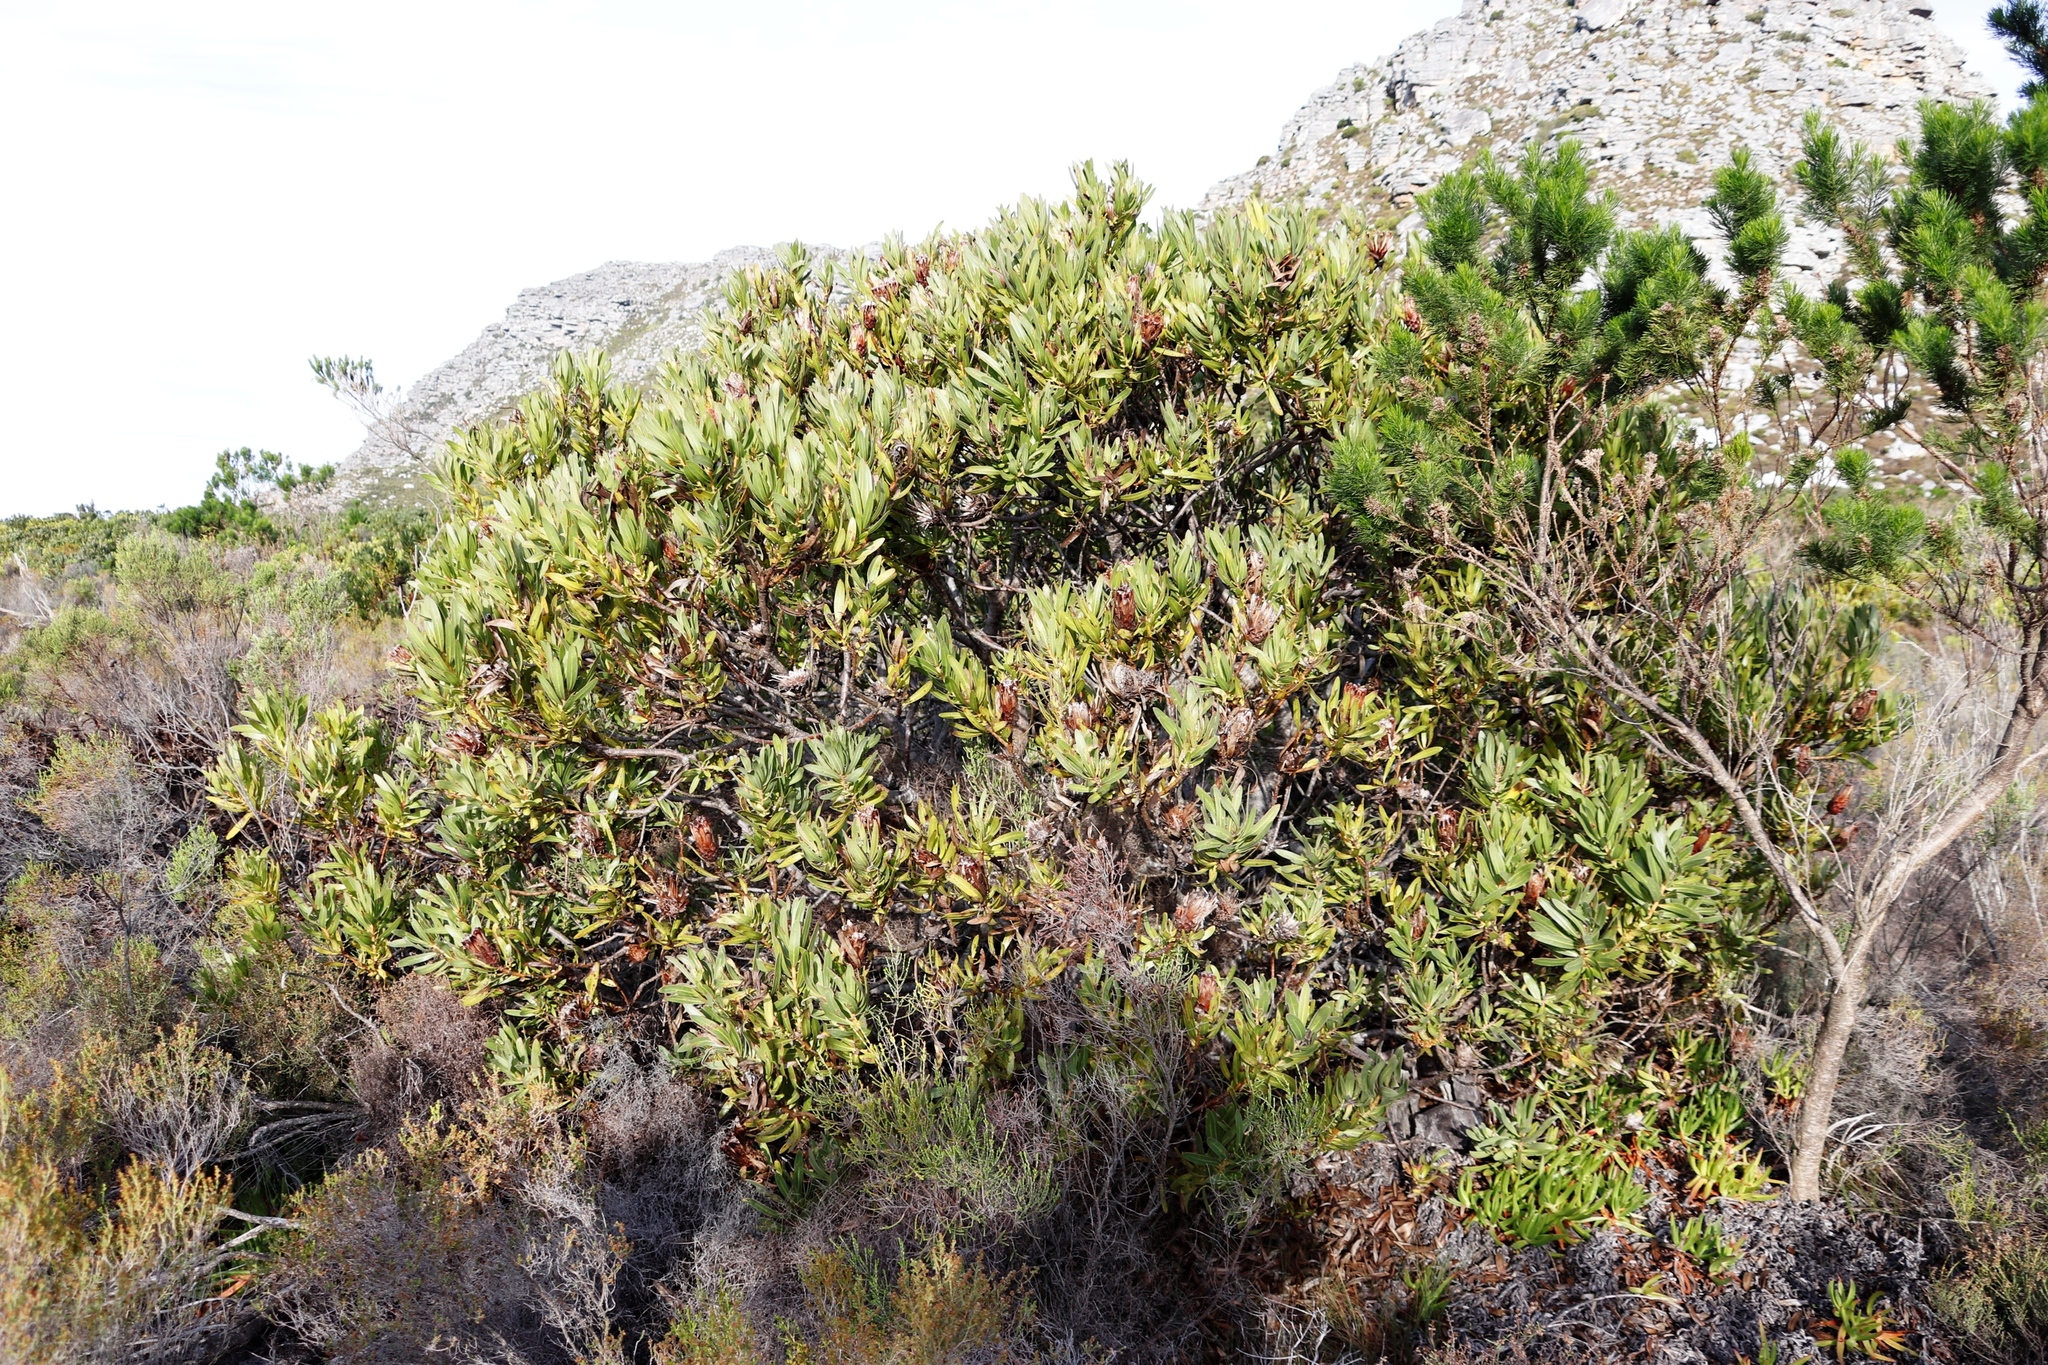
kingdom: Plantae
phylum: Tracheophyta
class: Magnoliopsida
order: Proteales
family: Proteaceae
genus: Protea
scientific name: Protea lepidocarpodendron
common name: Black-bearded protea
